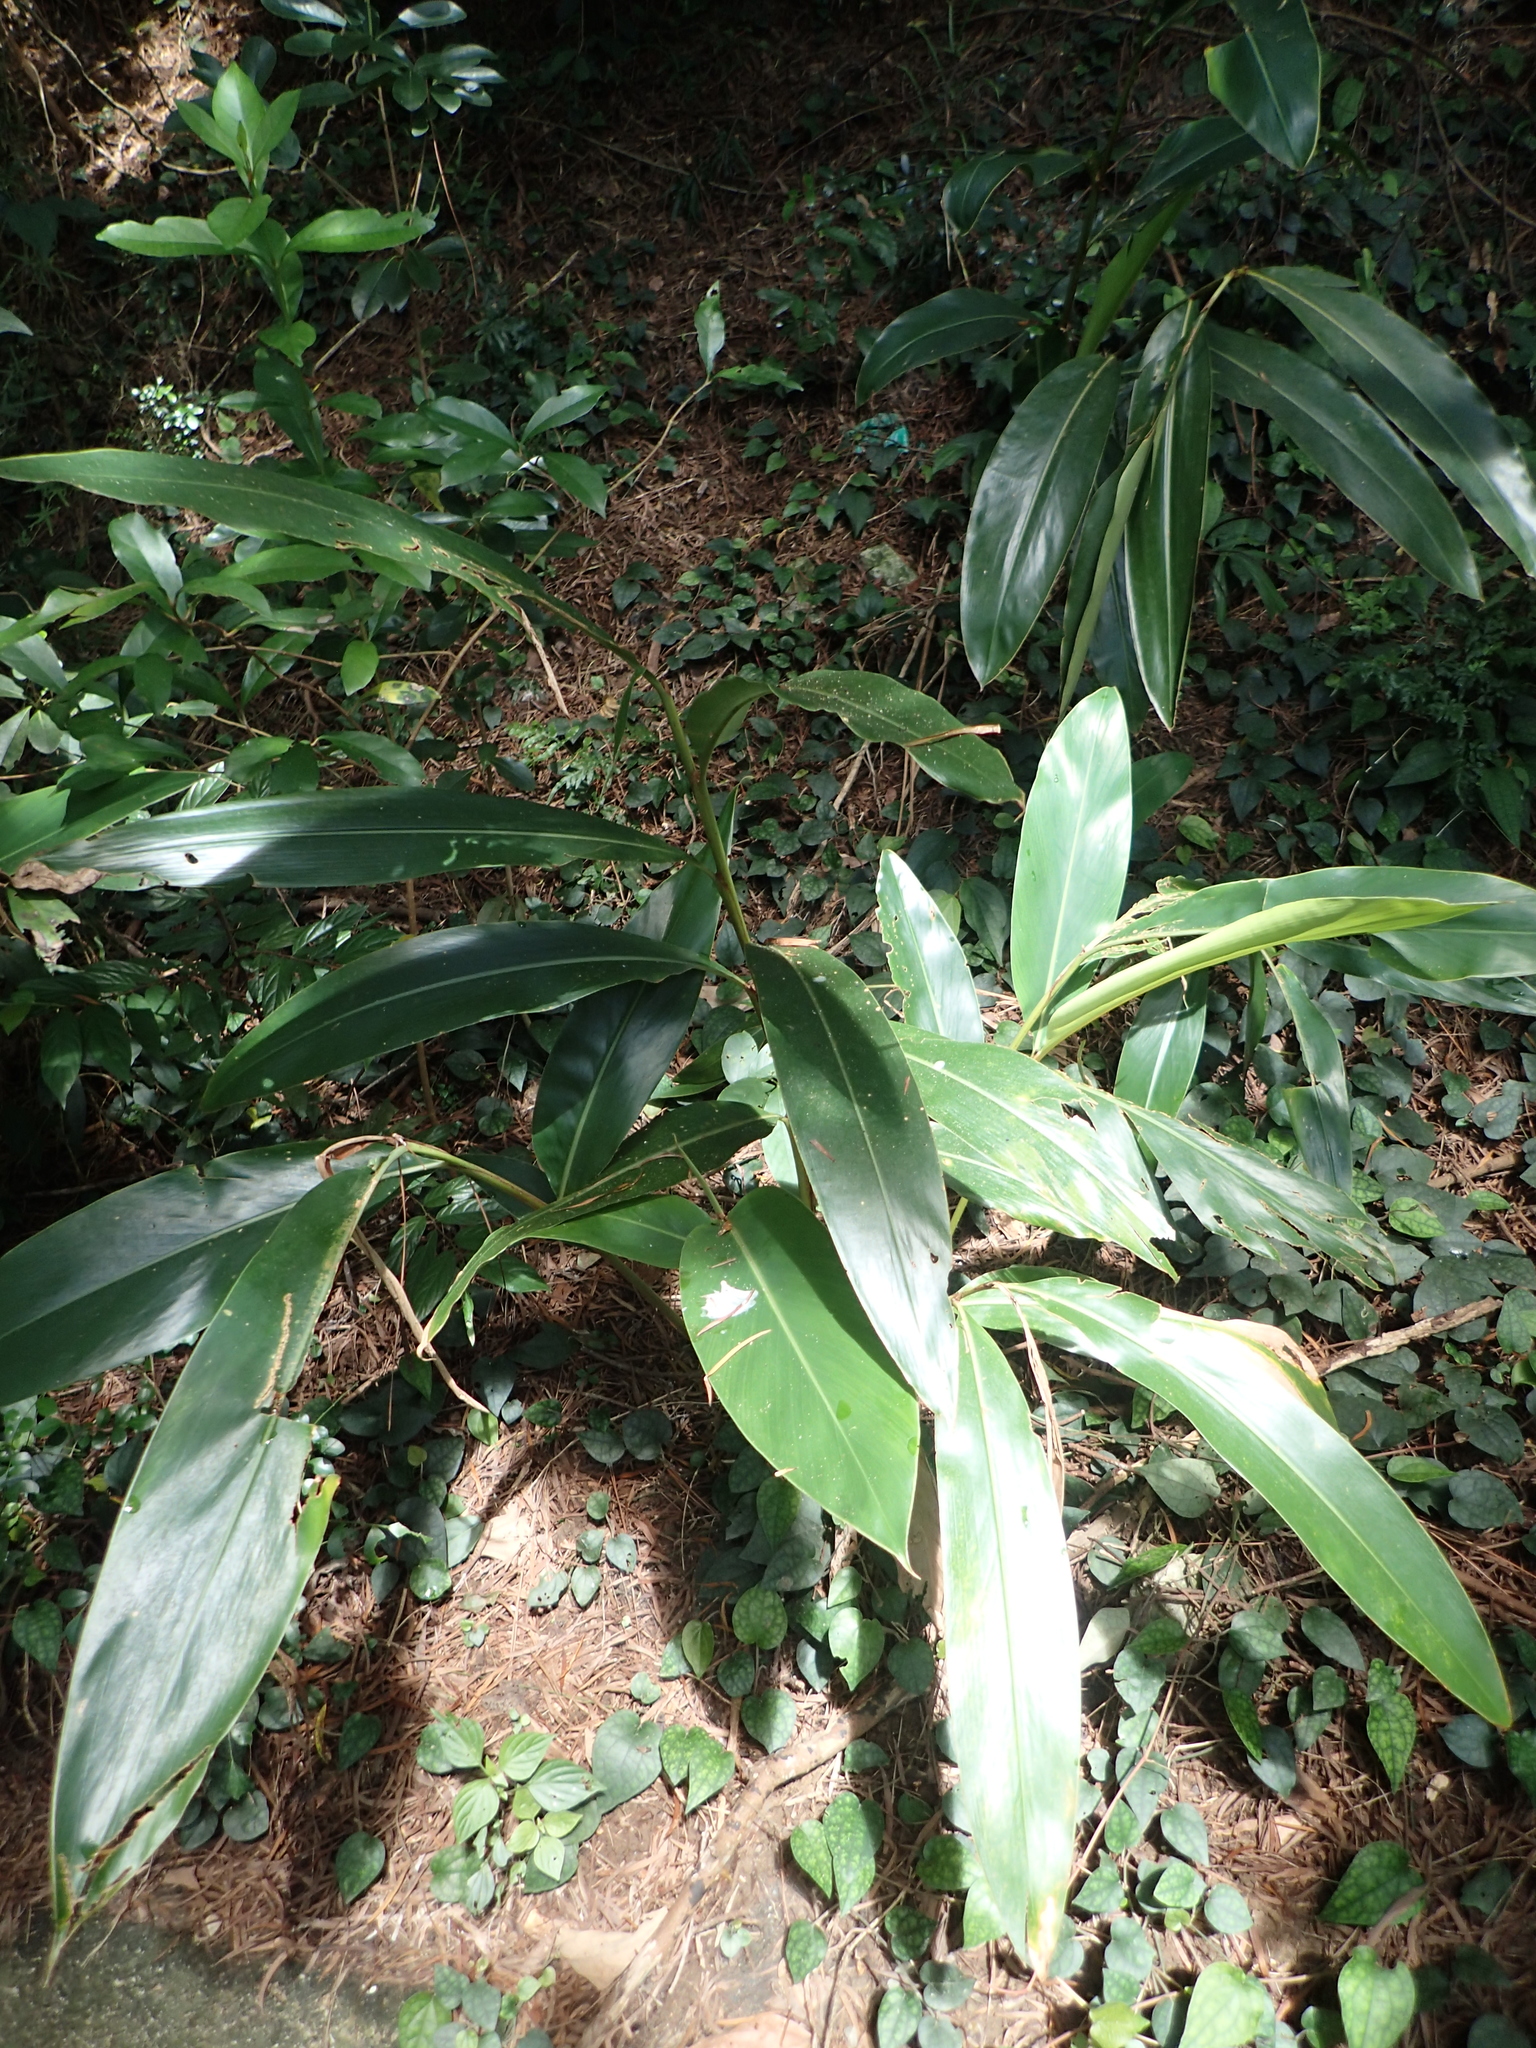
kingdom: Plantae
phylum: Tracheophyta
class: Liliopsida
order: Zingiberales
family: Zingiberaceae
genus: Alpinia
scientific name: Alpinia zerumbet
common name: Shellplant
